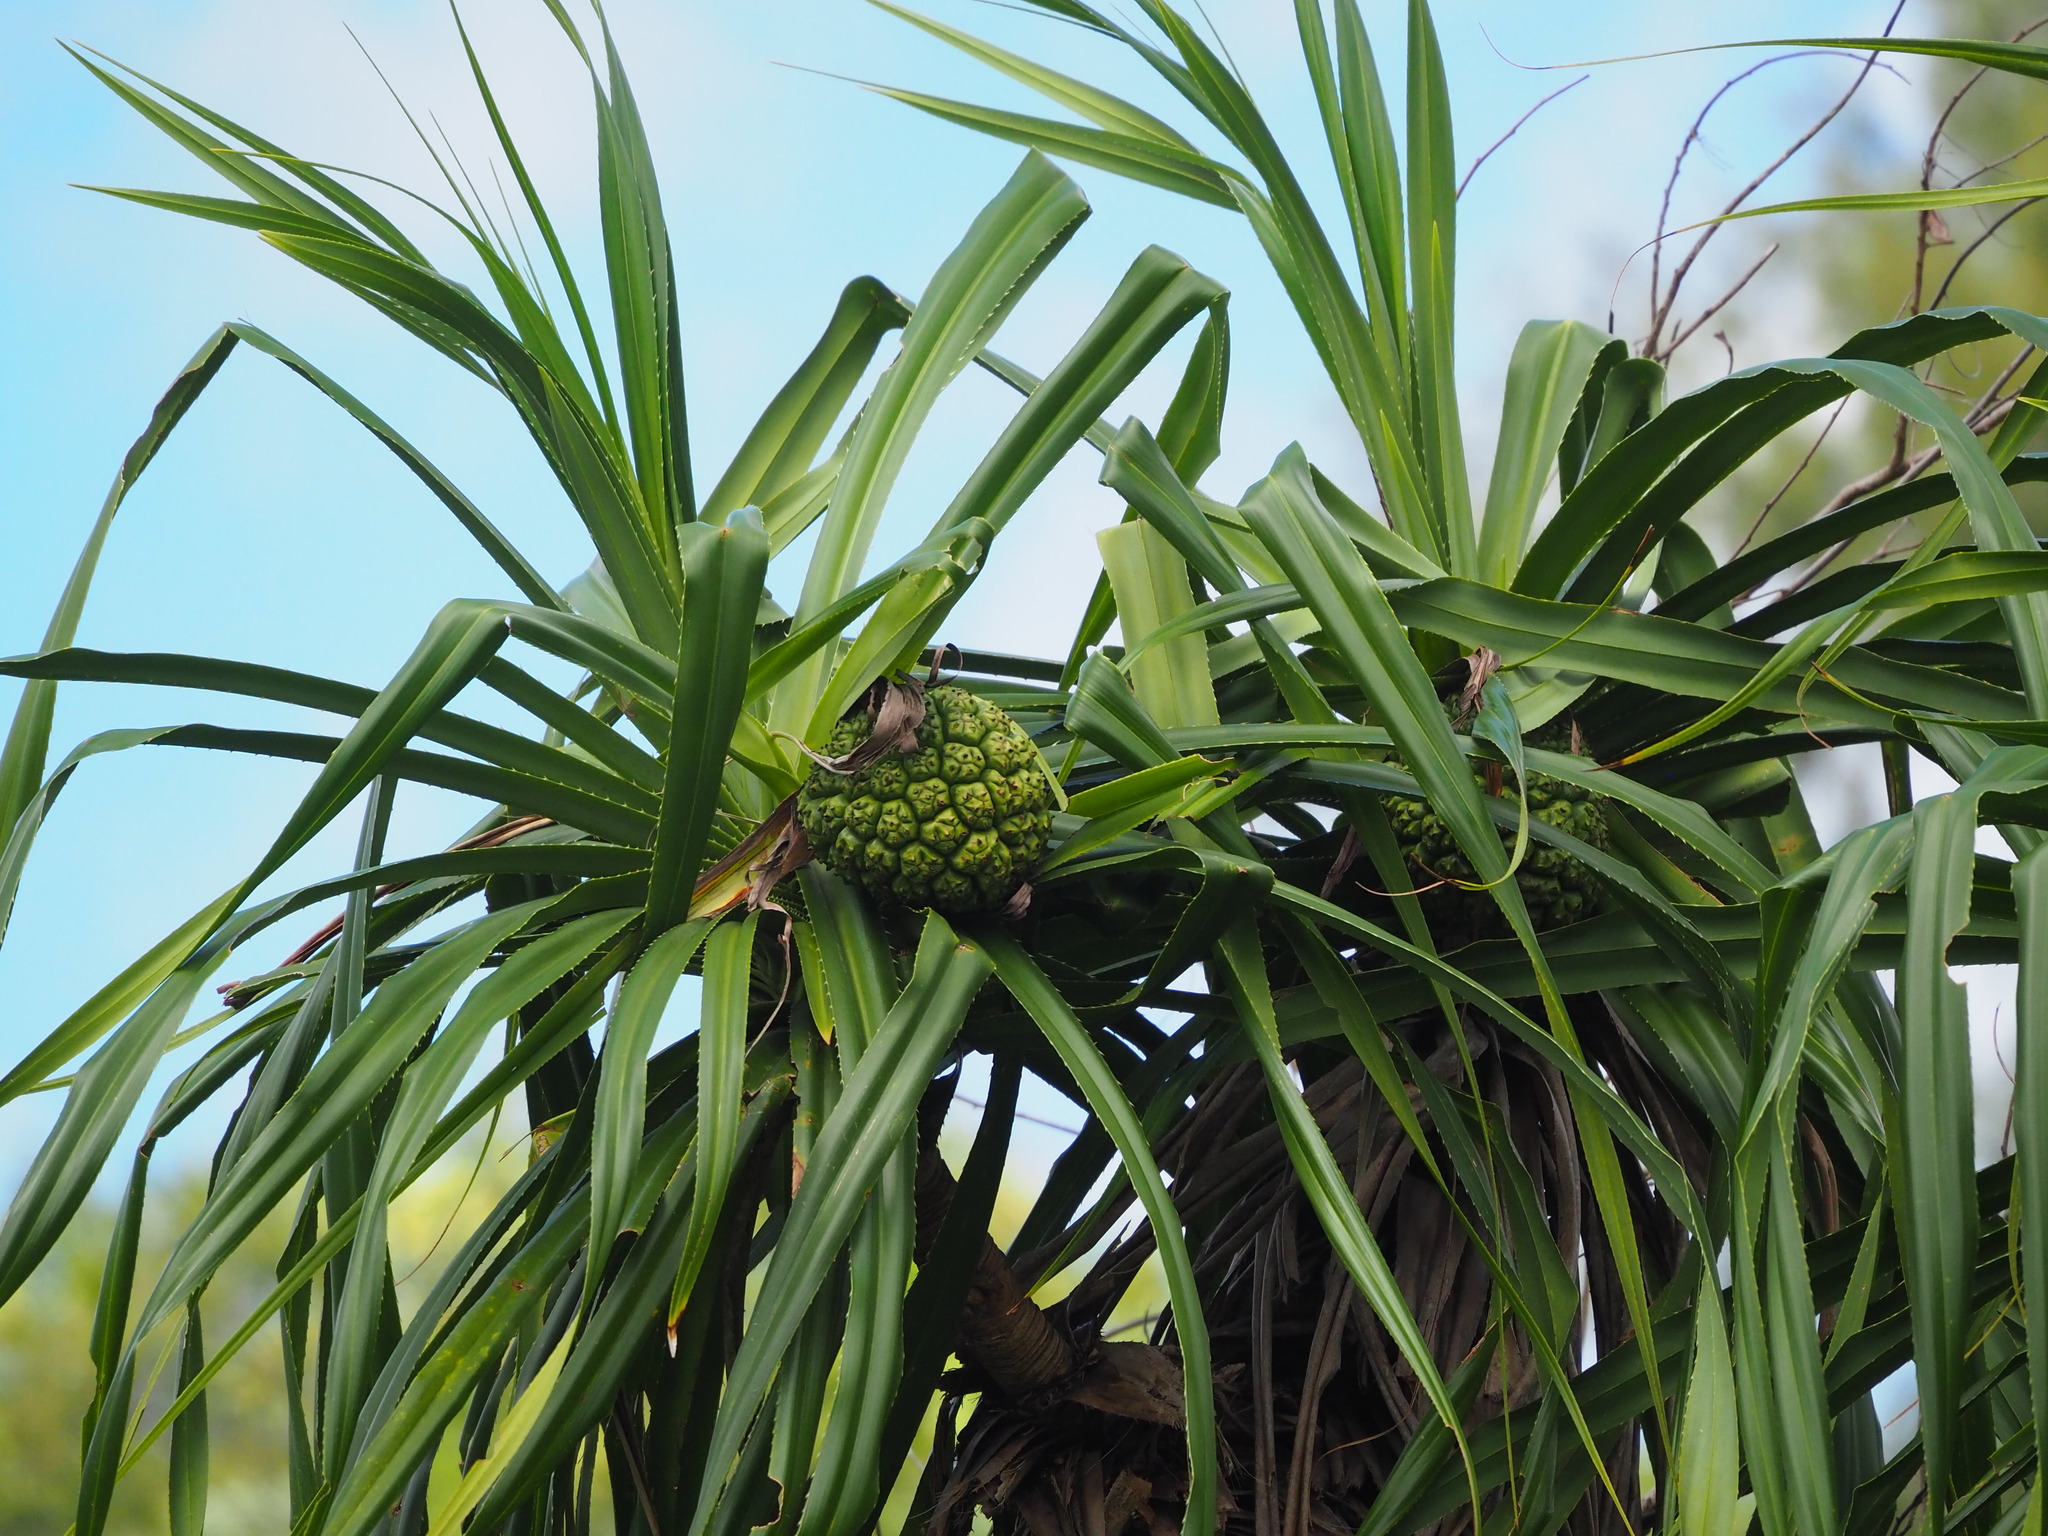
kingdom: Plantae
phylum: Tracheophyta
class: Liliopsida
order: Pandanales
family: Pandanaceae
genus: Pandanus
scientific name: Pandanus odorifer
